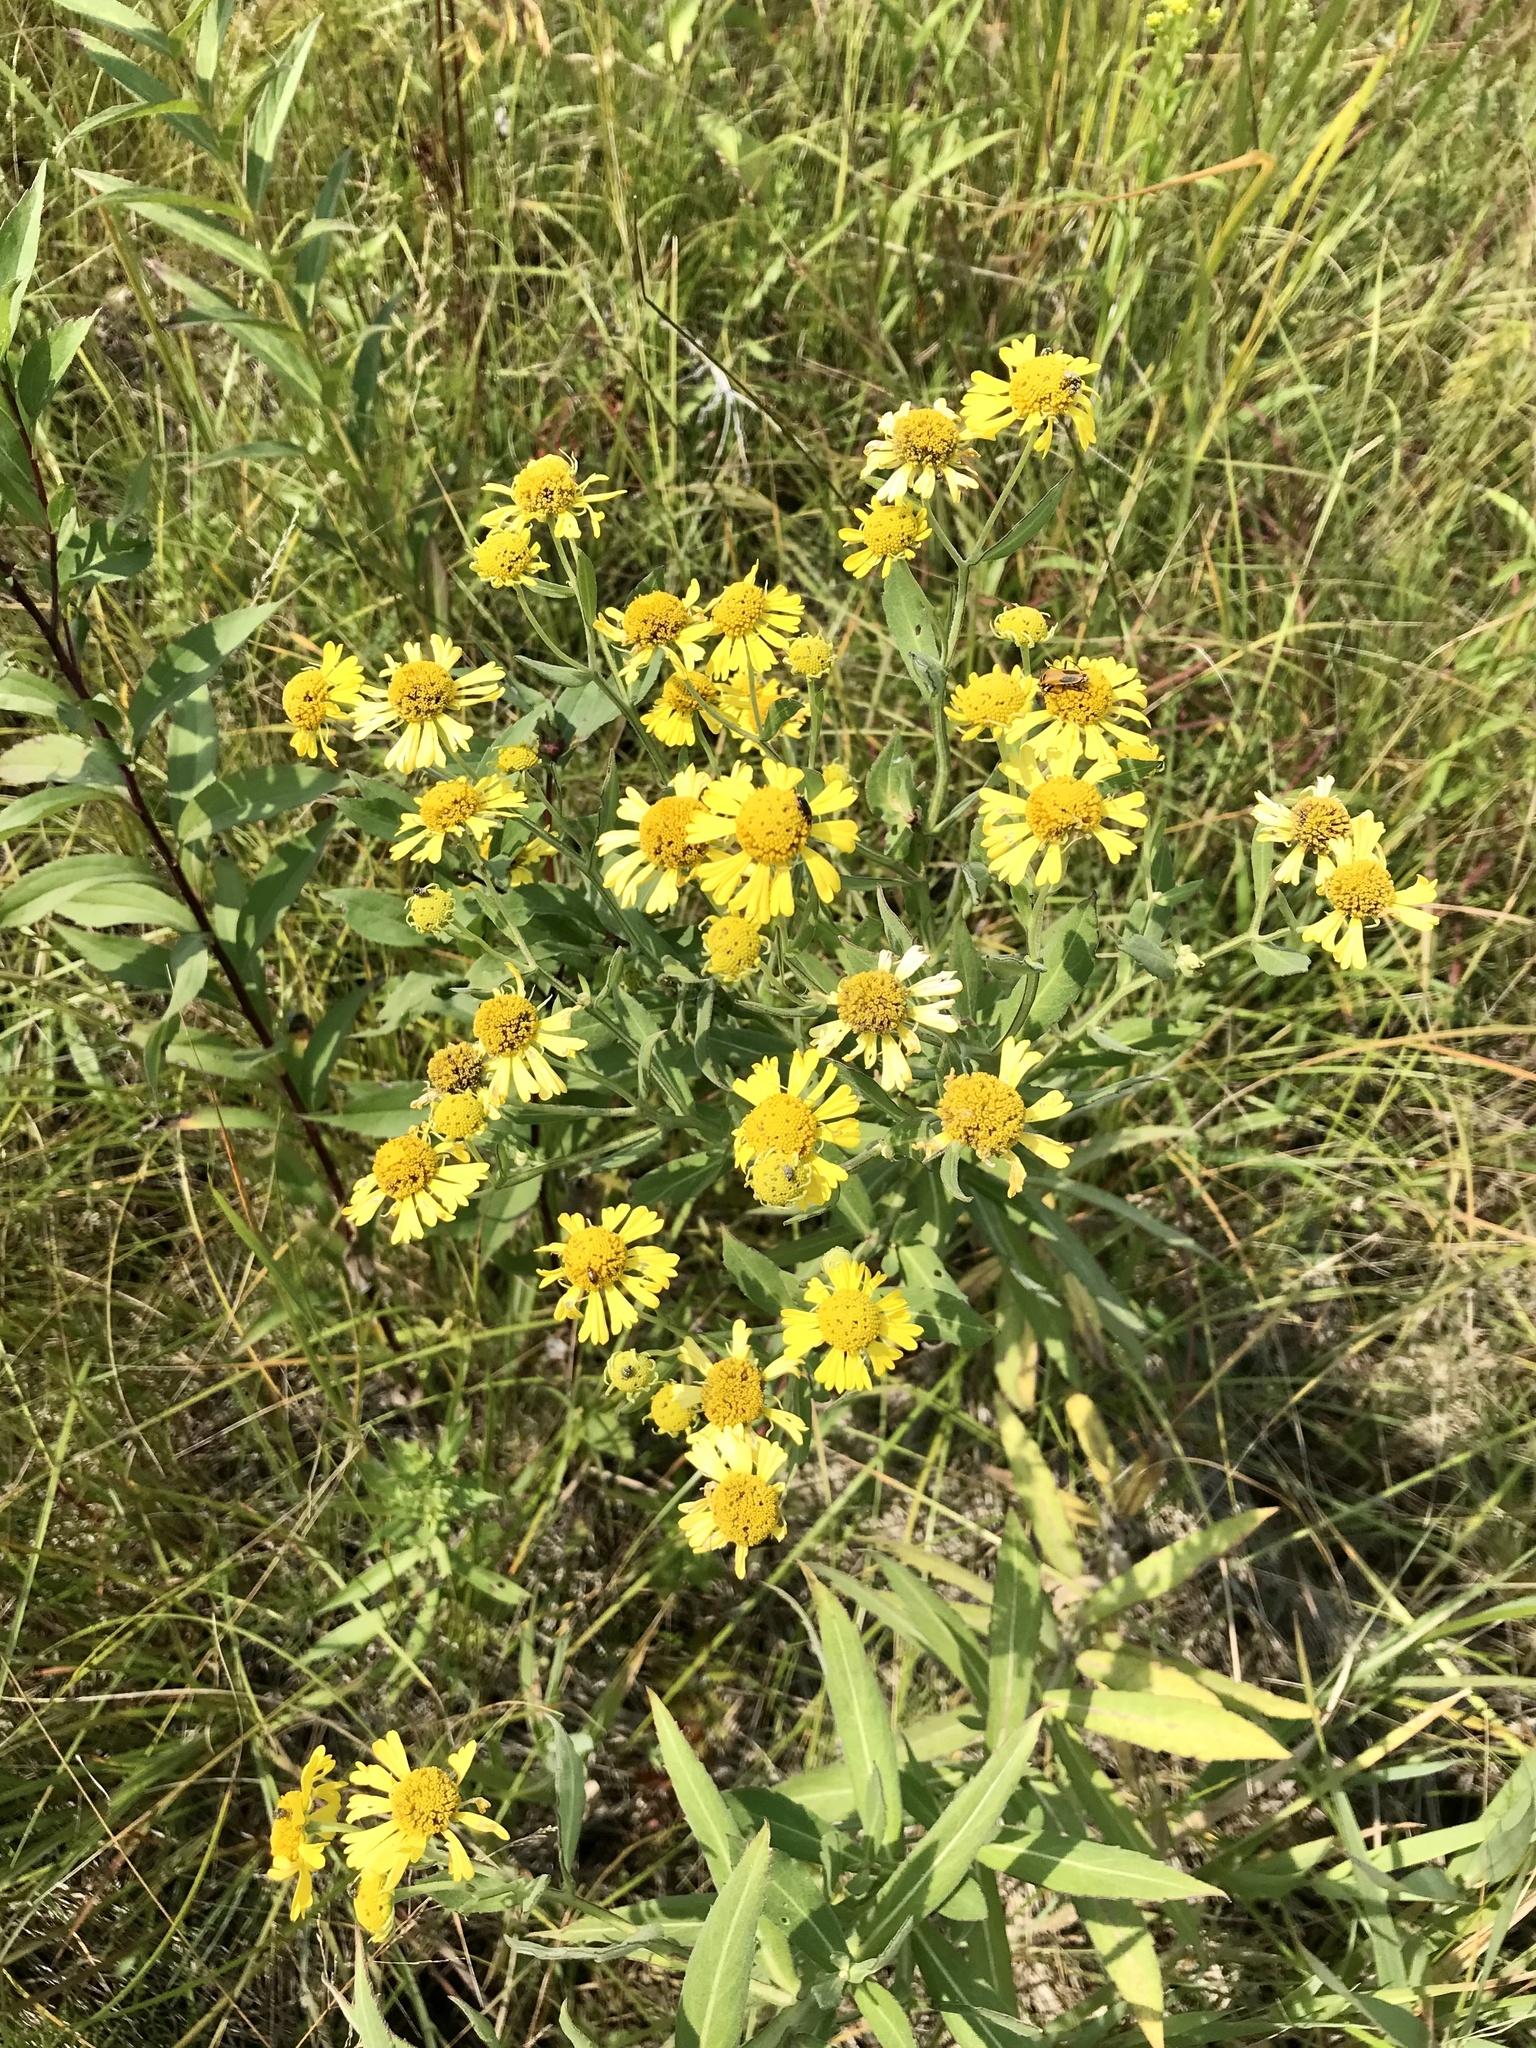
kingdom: Plantae
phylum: Tracheophyta
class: Magnoliopsida
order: Asterales
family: Asteraceae
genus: Helenium
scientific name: Helenium autumnale
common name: Sneezeweed
